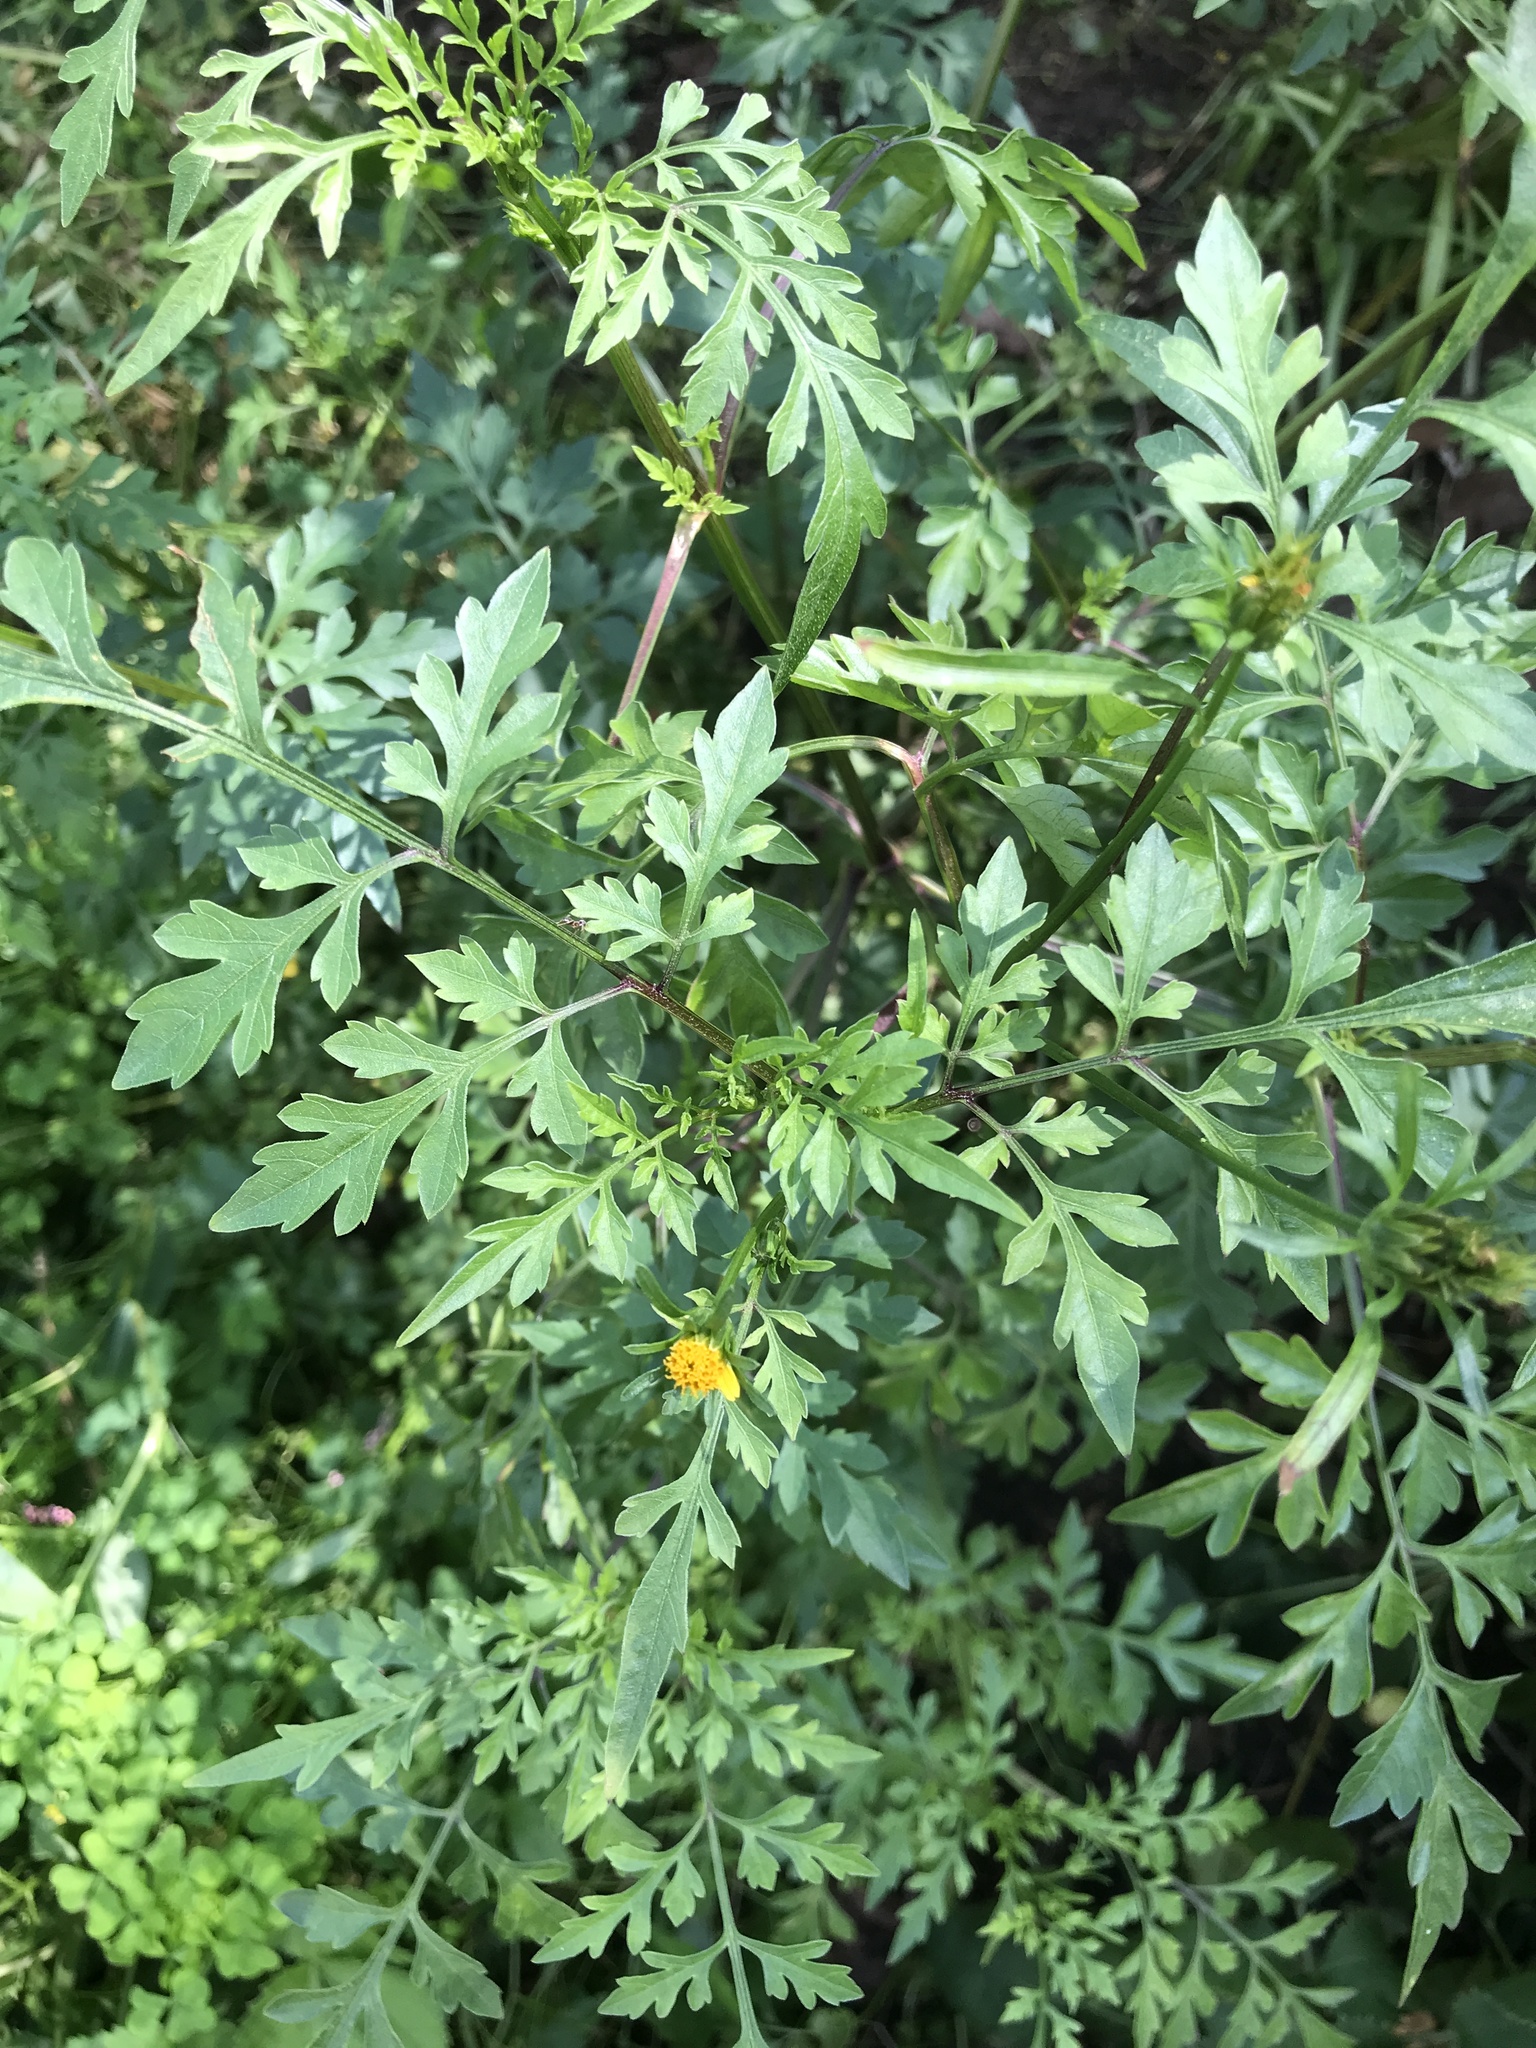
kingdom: Plantae
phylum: Tracheophyta
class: Magnoliopsida
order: Asterales
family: Asteraceae
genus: Bidens
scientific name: Bidens bipinnata
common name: Spanish-needles
